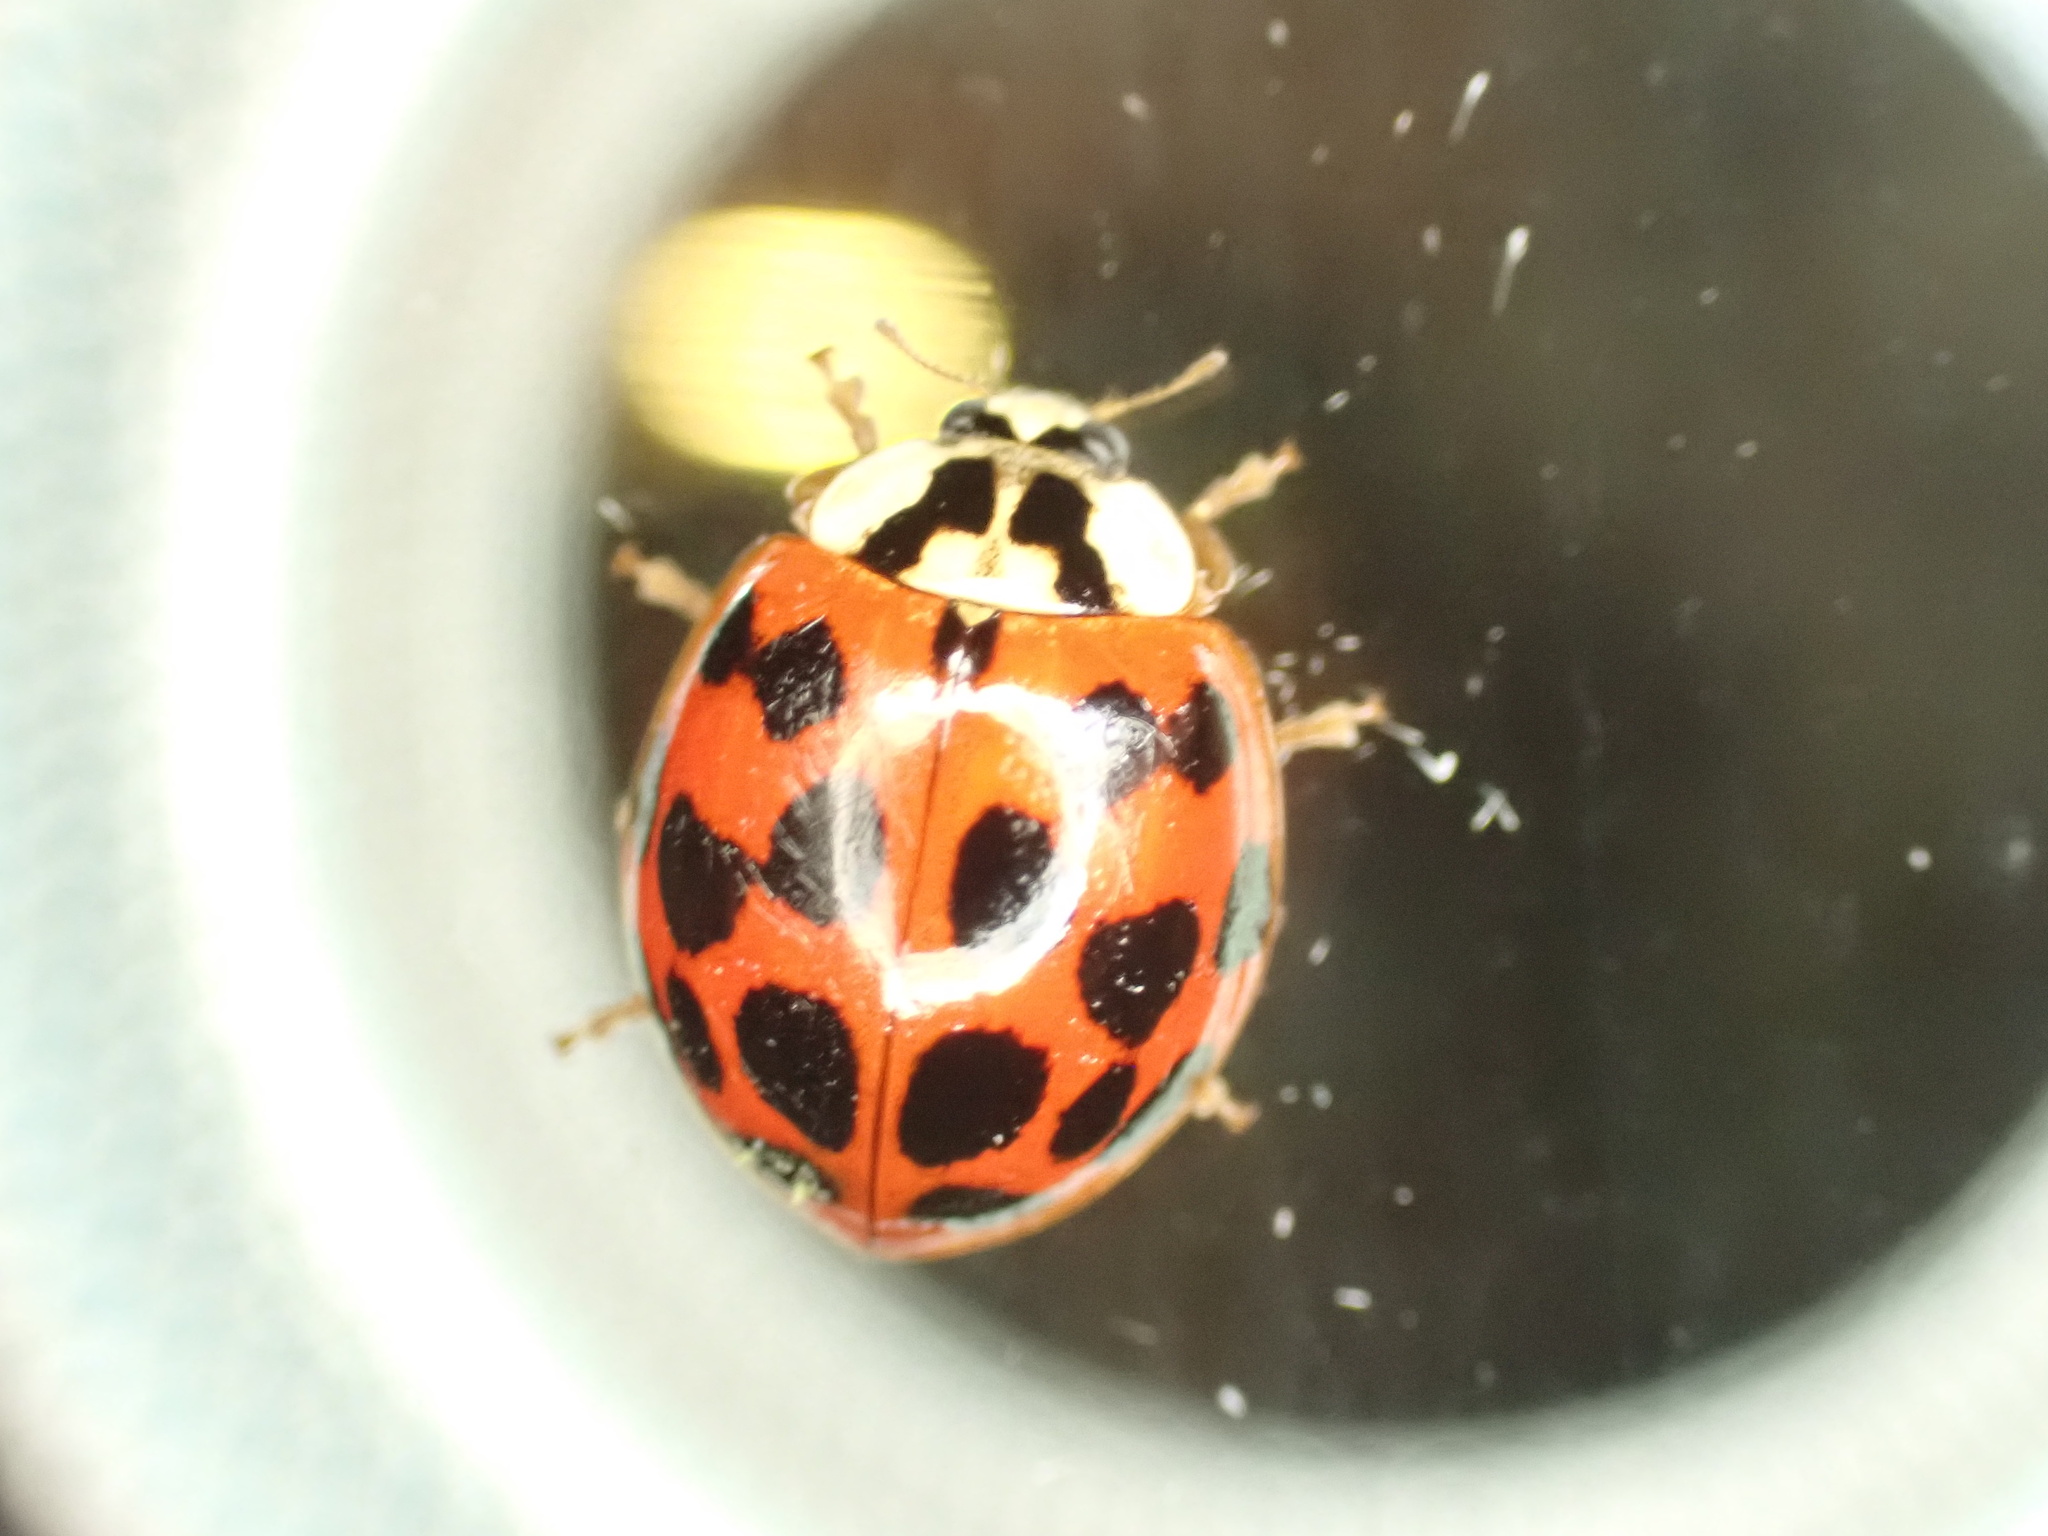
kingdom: Animalia
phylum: Arthropoda
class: Insecta
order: Coleoptera
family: Coccinellidae
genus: Harmonia
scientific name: Harmonia axyridis
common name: Harlequin ladybird
